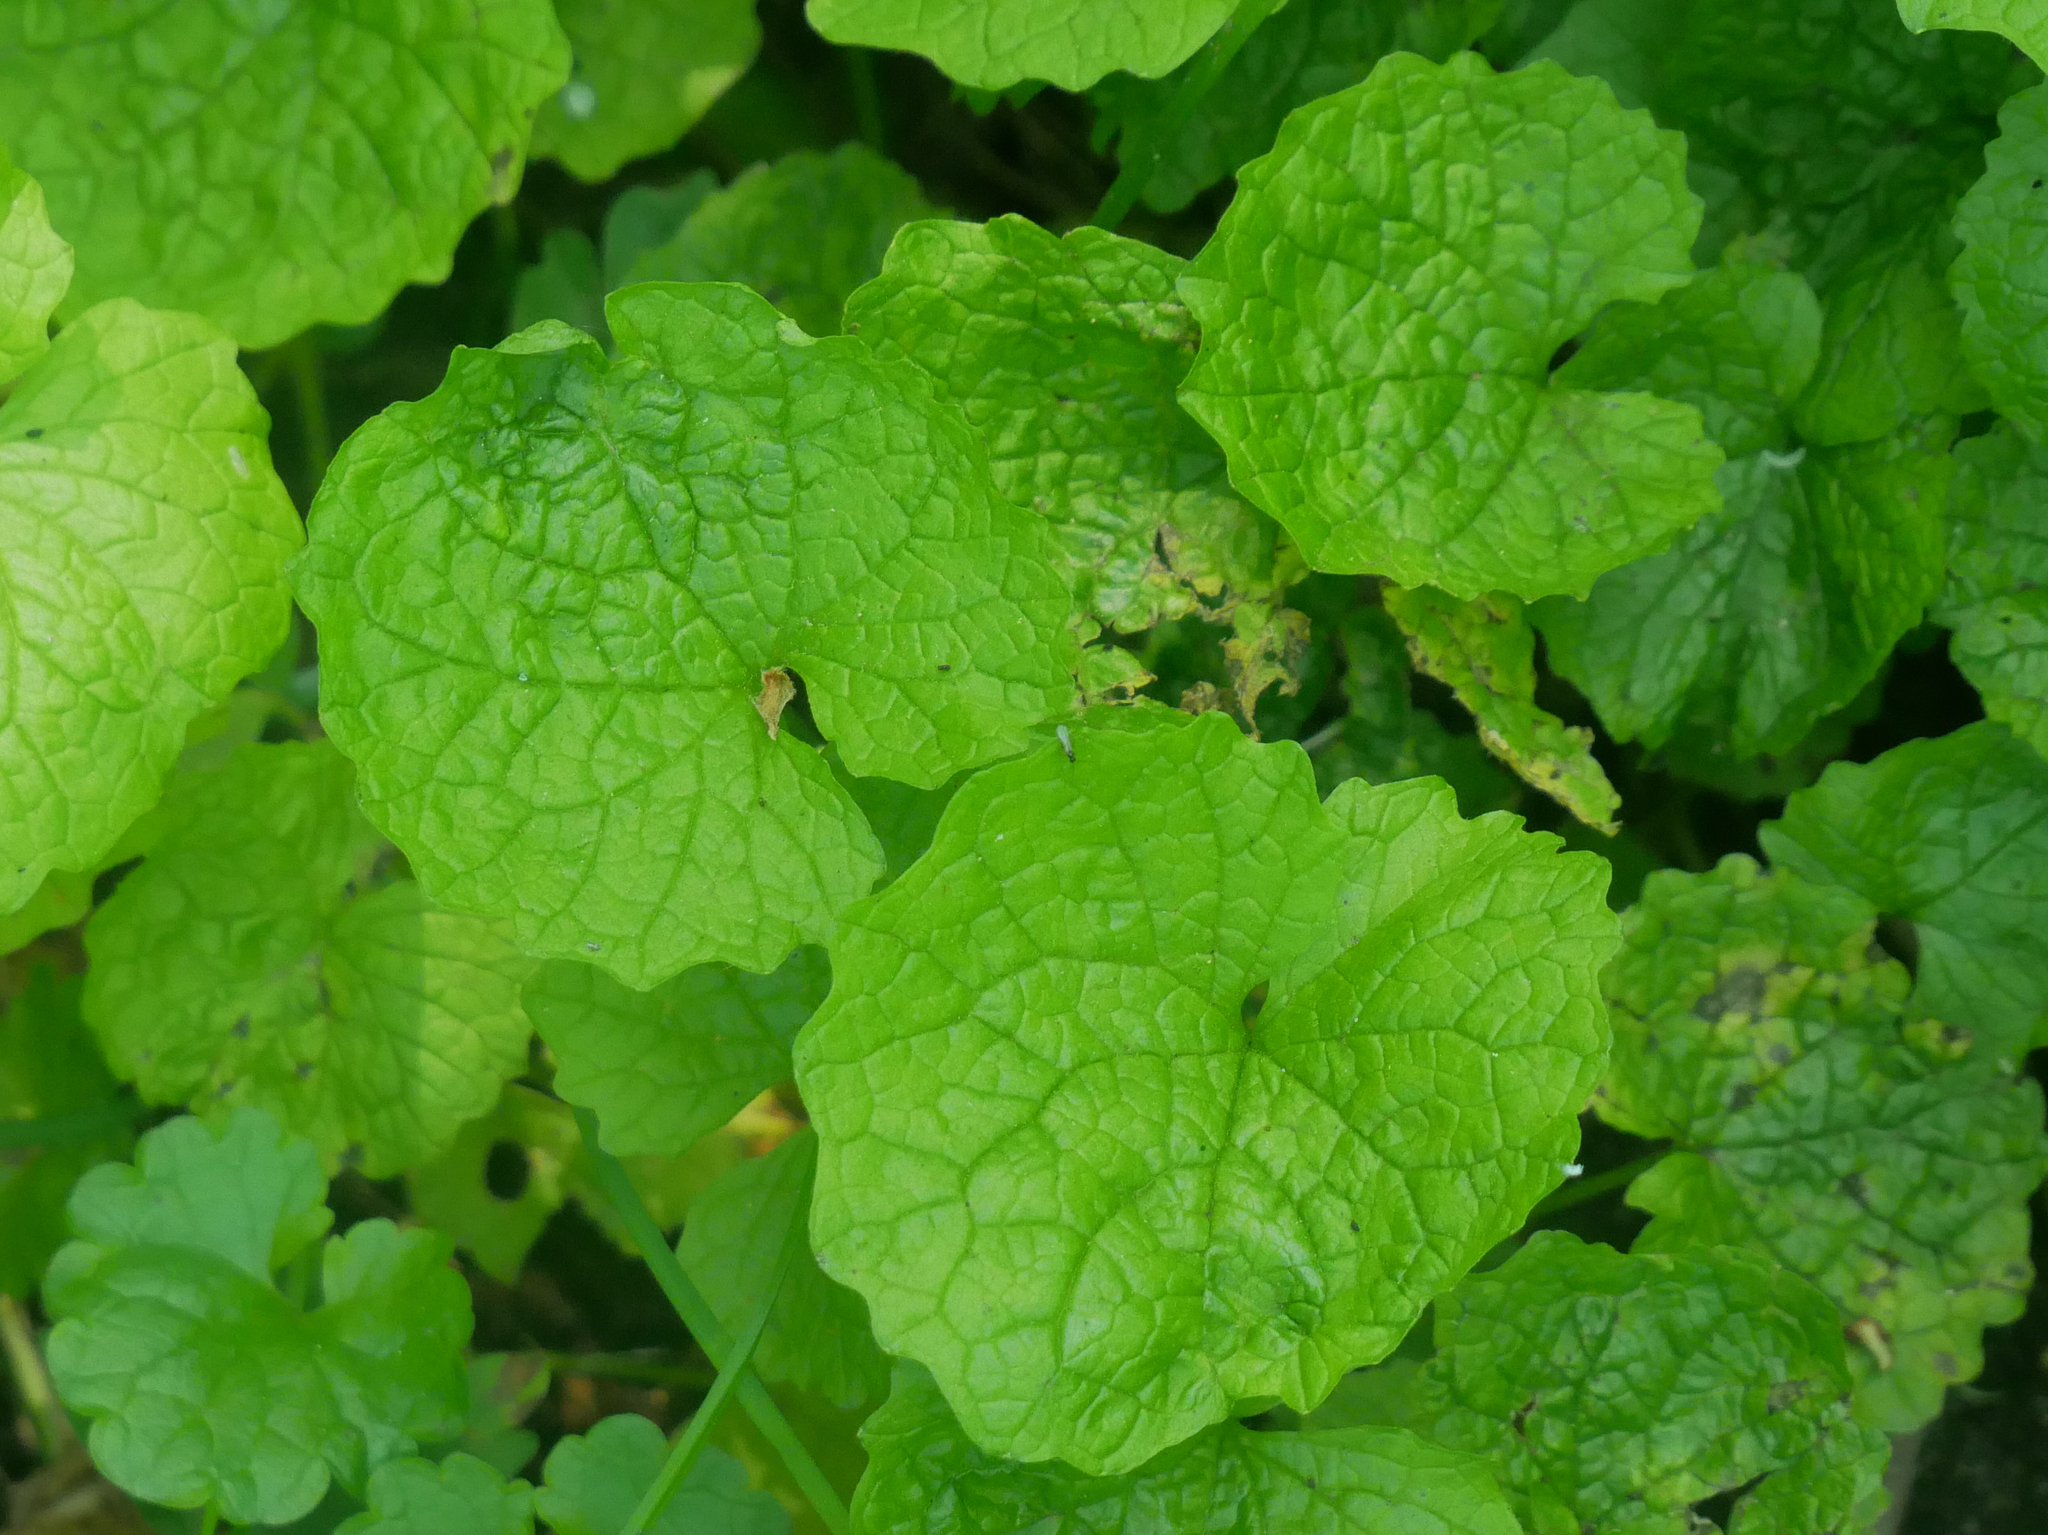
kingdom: Plantae
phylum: Tracheophyta
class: Magnoliopsida
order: Brassicales
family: Brassicaceae
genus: Alliaria
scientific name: Alliaria petiolata
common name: Garlic mustard
